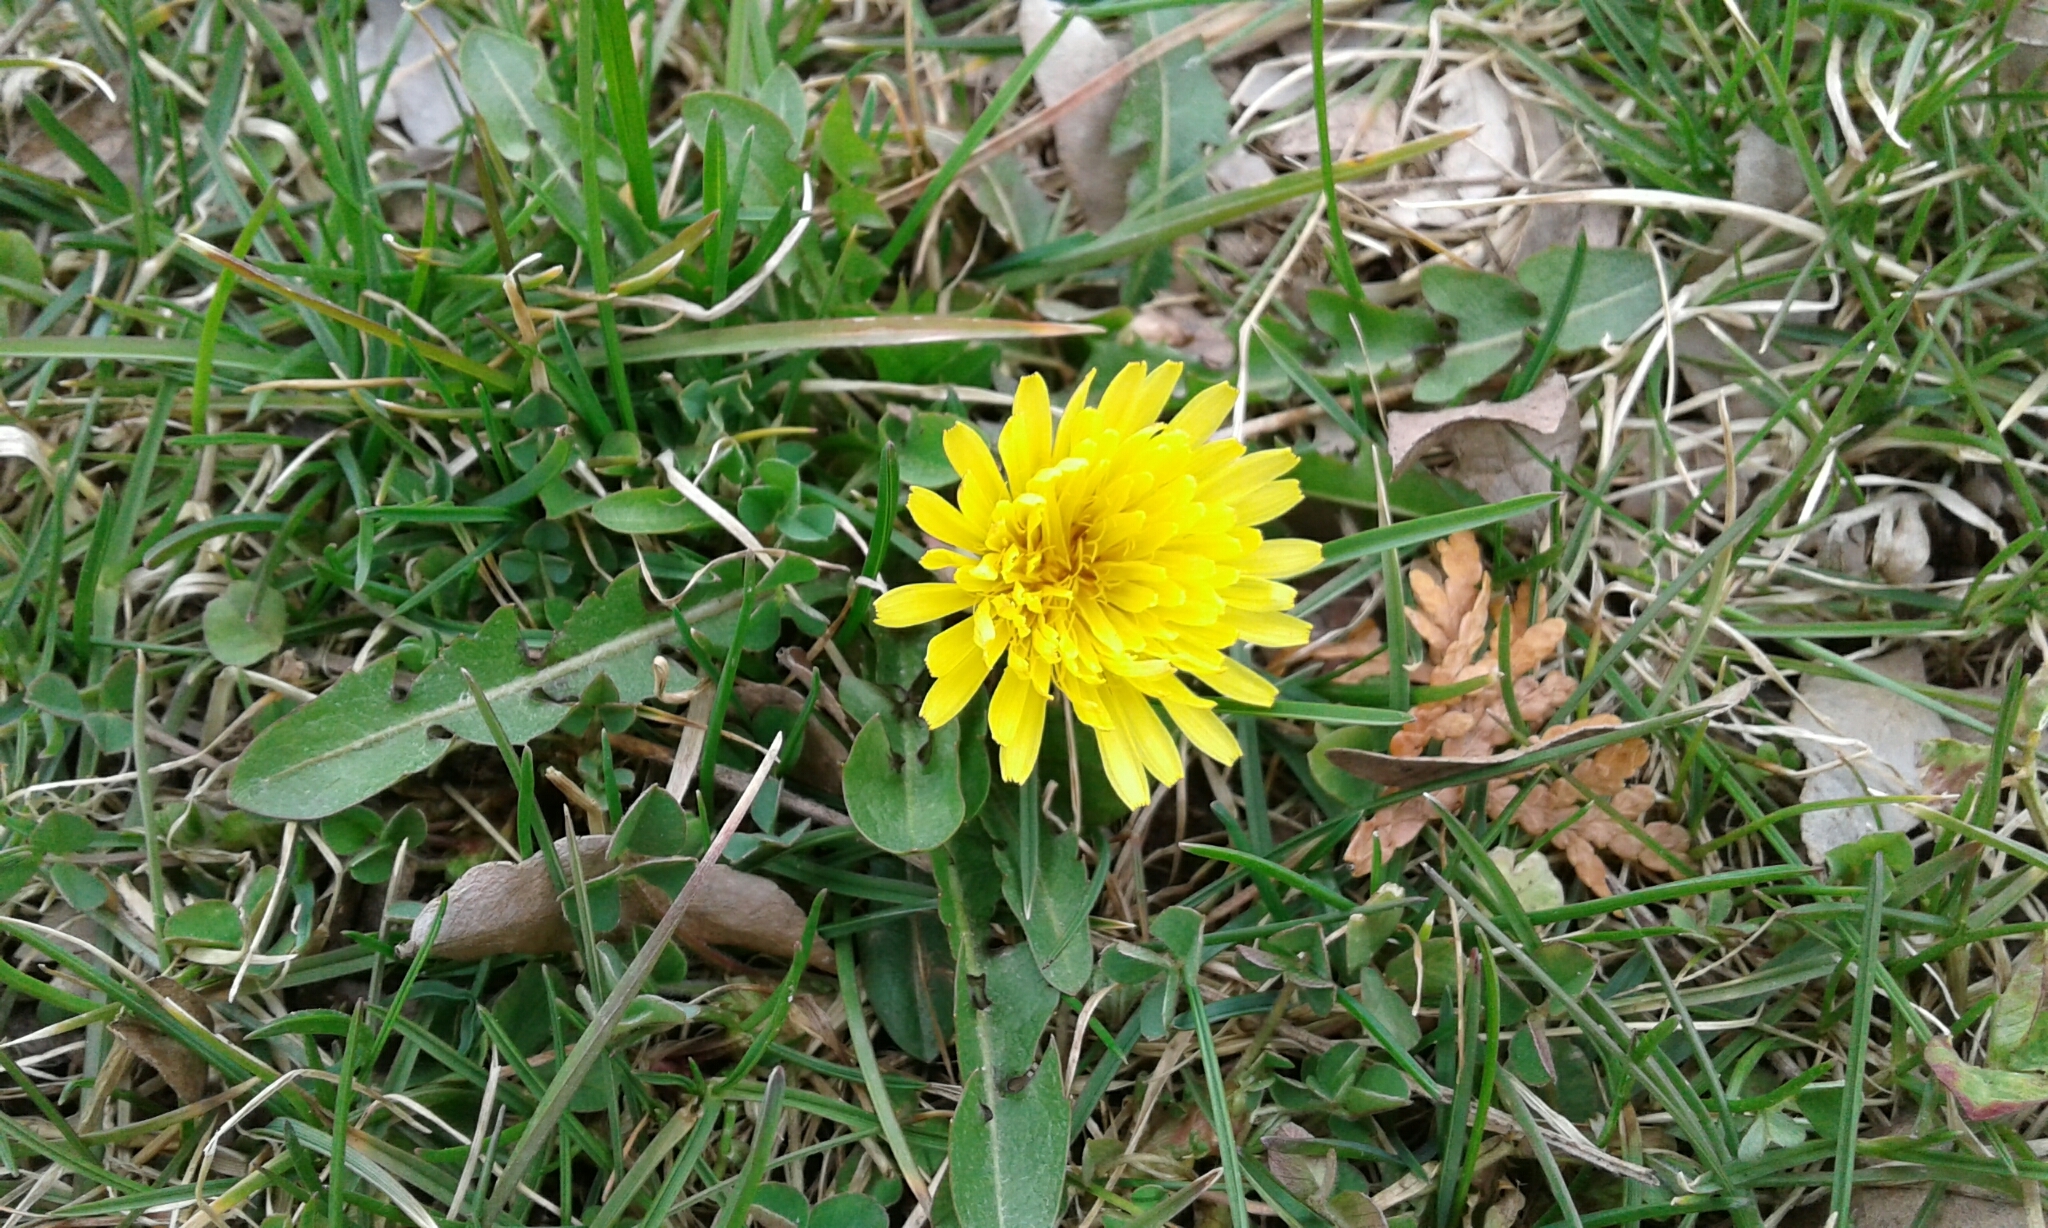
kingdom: Plantae
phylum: Tracheophyta
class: Magnoliopsida
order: Asterales
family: Asteraceae
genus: Taraxacum
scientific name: Taraxacum officinale
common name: Common dandelion
